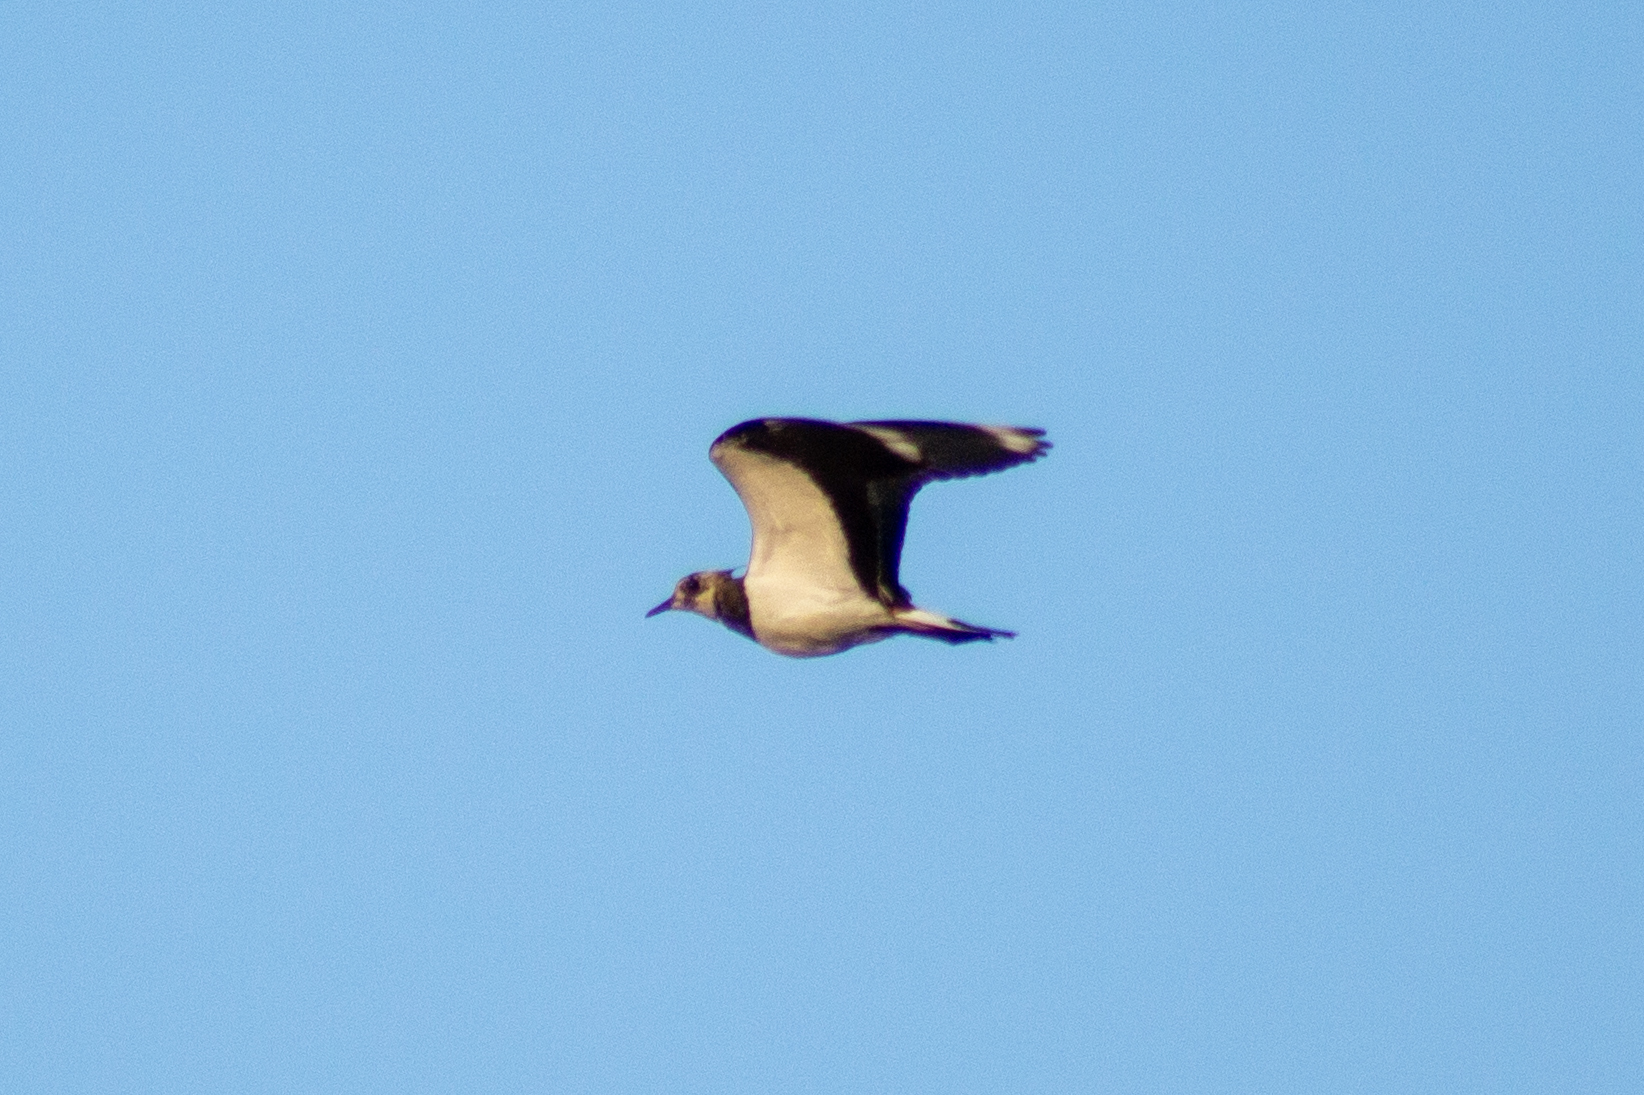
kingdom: Animalia
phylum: Chordata
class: Aves
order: Charadriiformes
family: Charadriidae
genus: Vanellus
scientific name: Vanellus vanellus
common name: Northern lapwing
